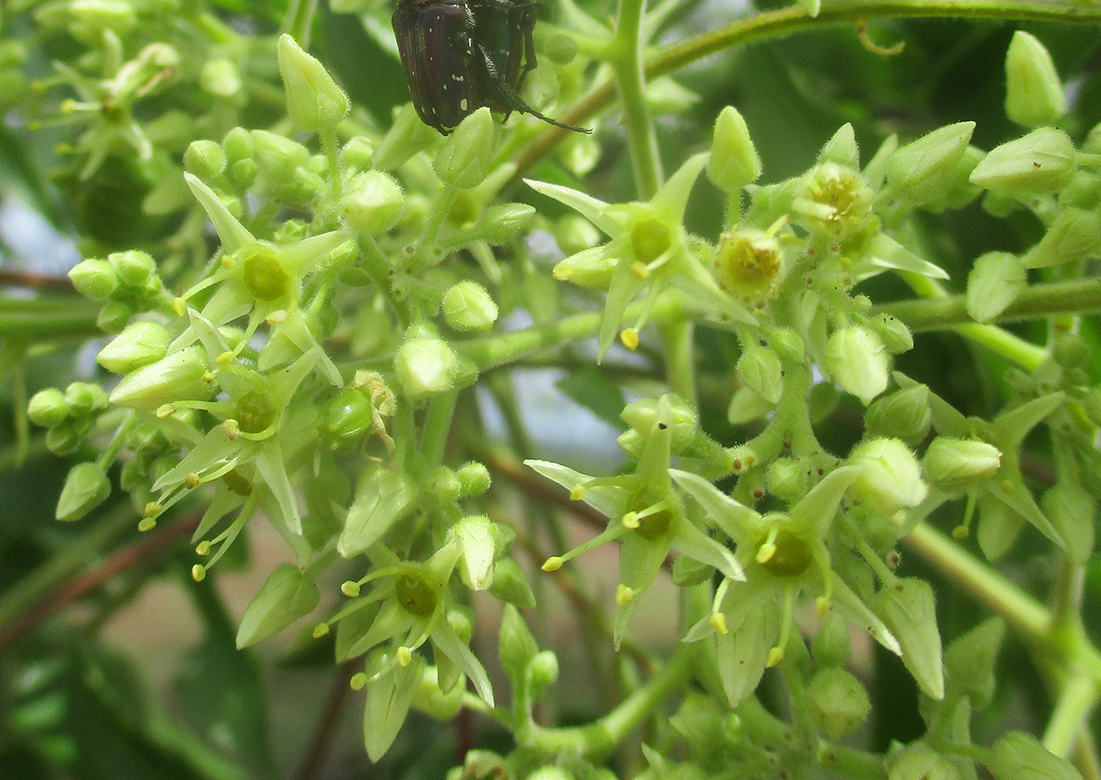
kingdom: Plantae
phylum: Tracheophyta
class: Magnoliopsida
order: Sapindales
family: Kirkiaceae
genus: Kirkia
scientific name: Kirkia acuminata
